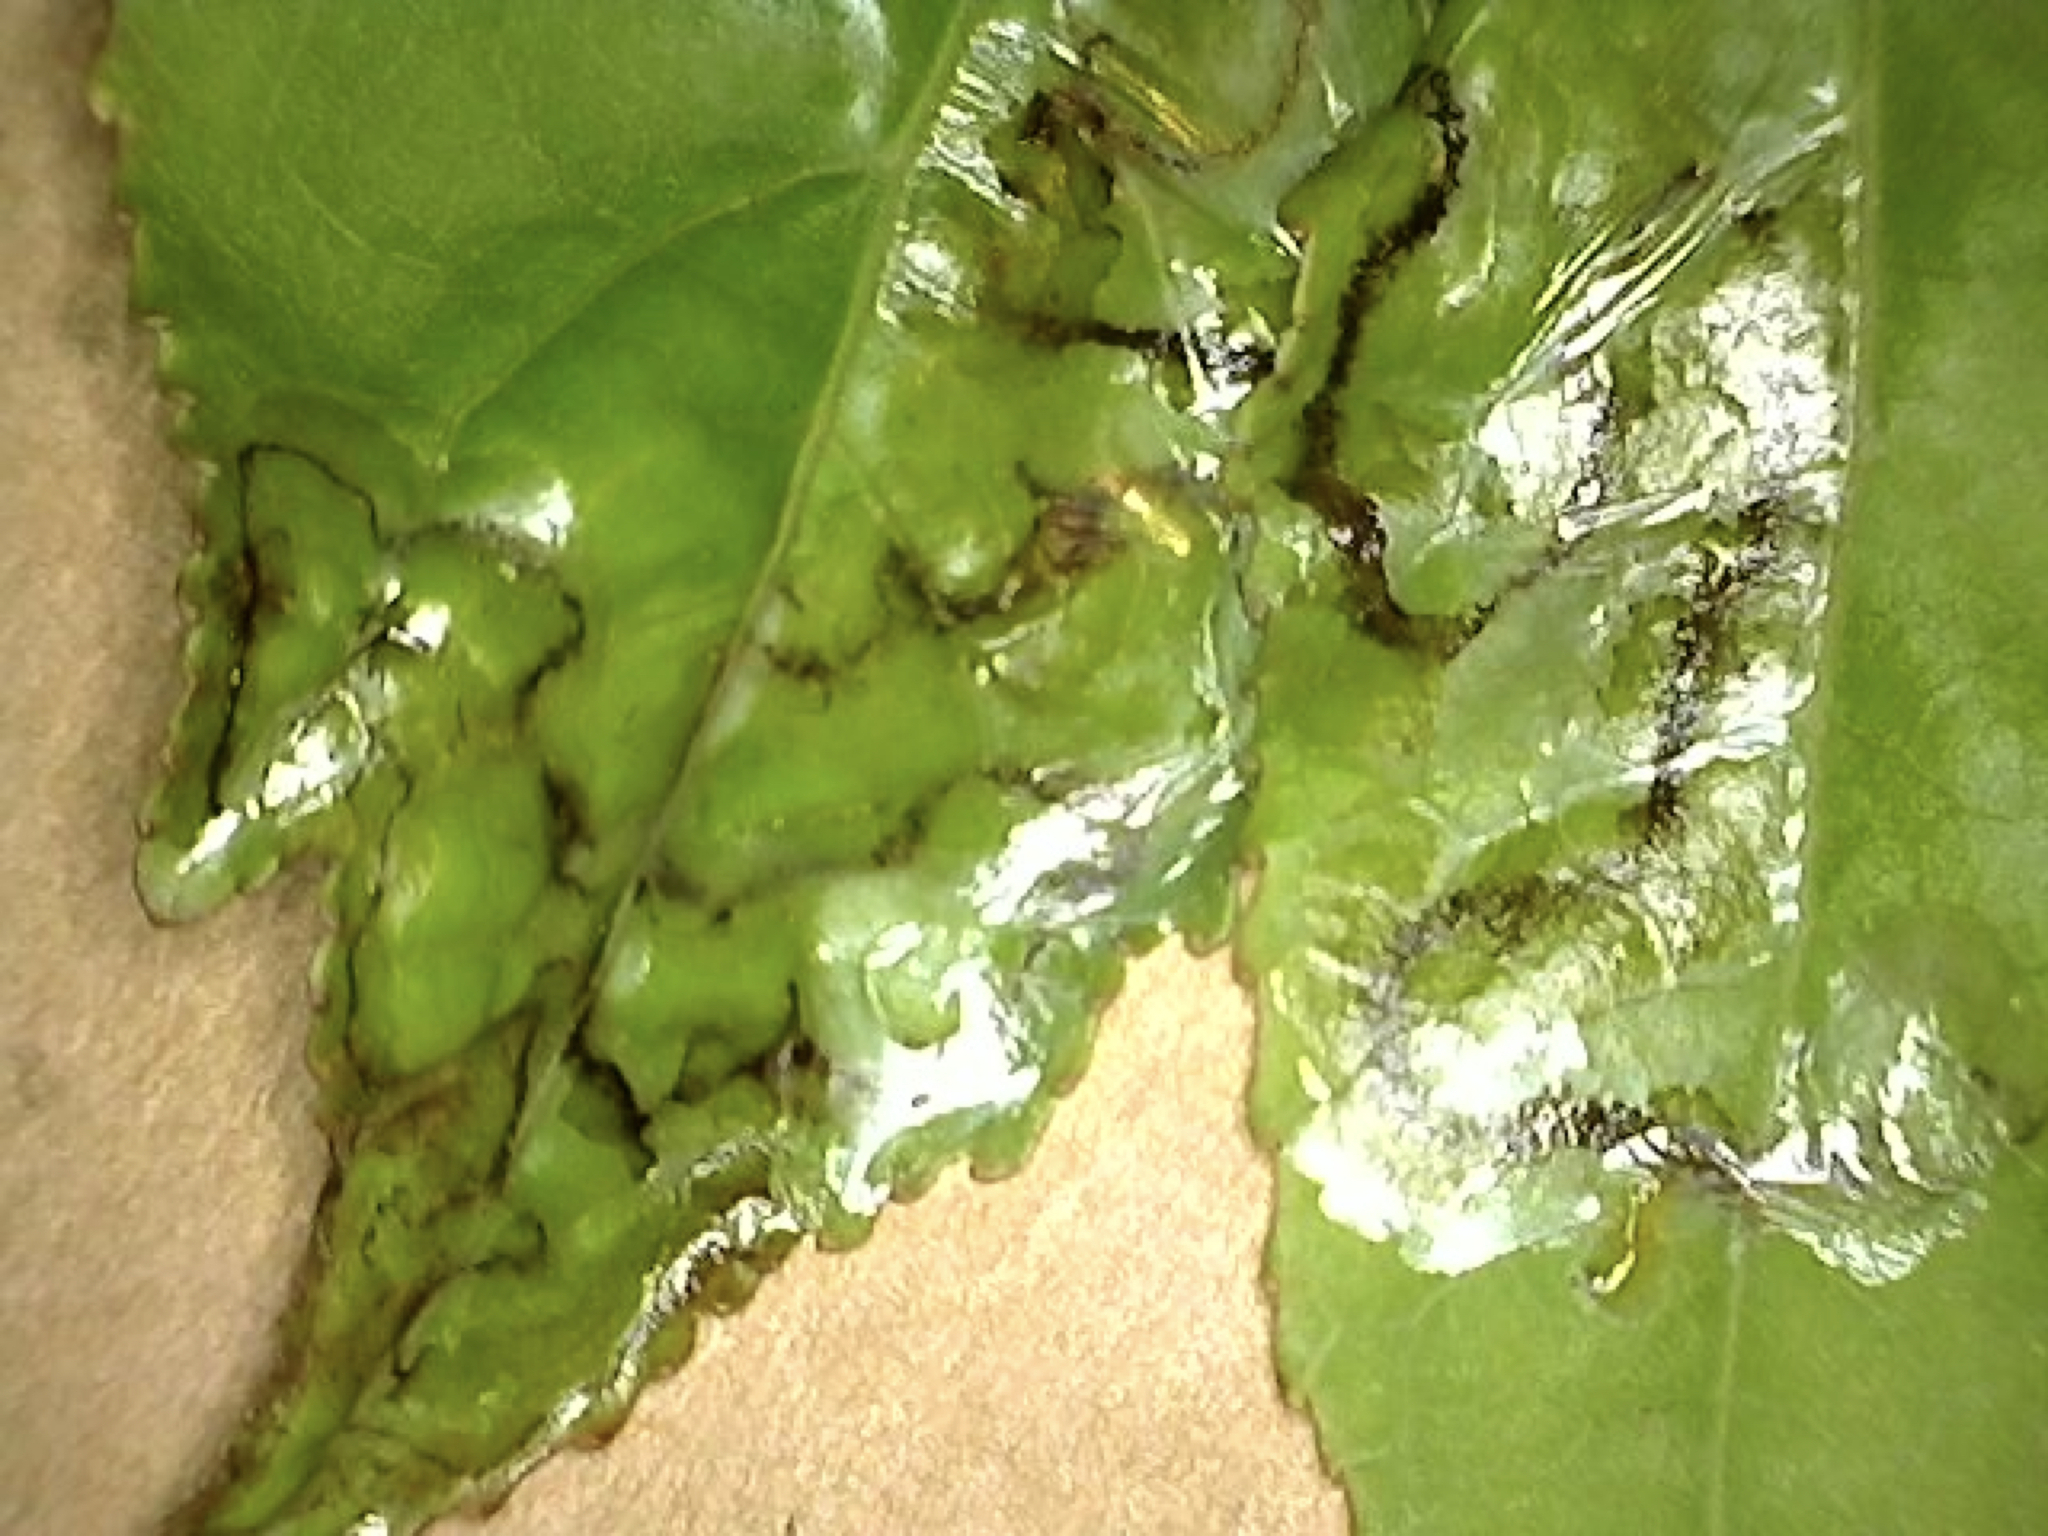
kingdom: Animalia
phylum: Arthropoda
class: Insecta
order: Lepidoptera
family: Gracillariidae
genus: Phyllocnistis
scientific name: Phyllocnistis liquidambarisella
